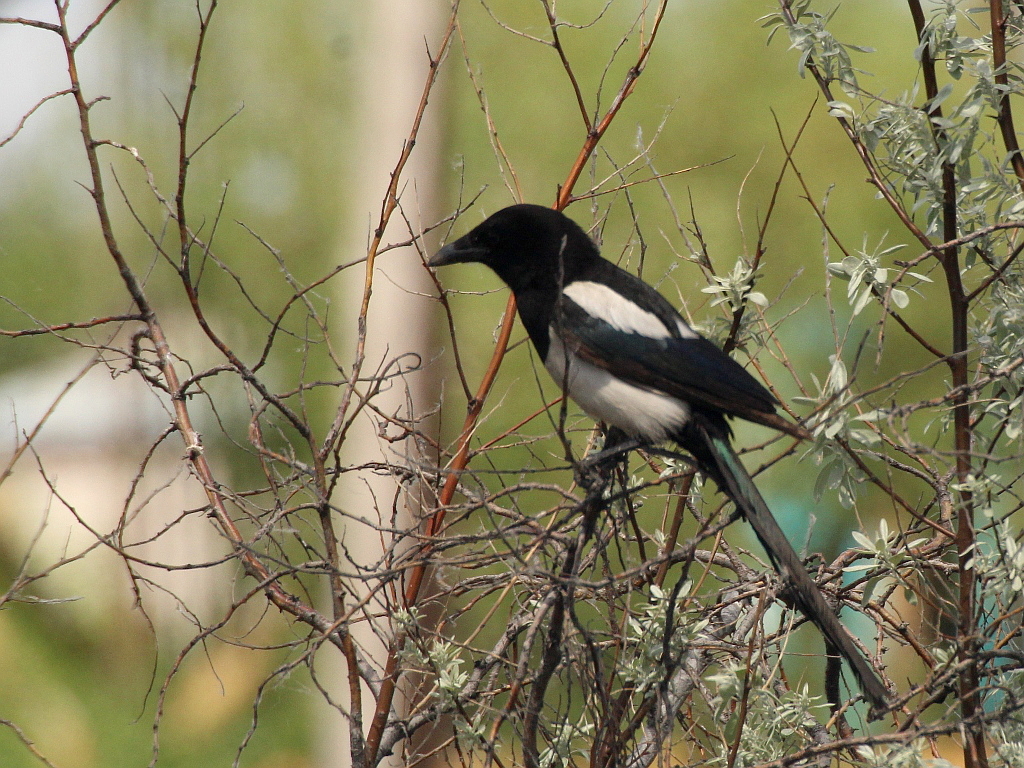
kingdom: Animalia
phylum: Chordata
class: Aves
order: Passeriformes
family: Corvidae
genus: Pica
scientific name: Pica pica
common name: Eurasian magpie
